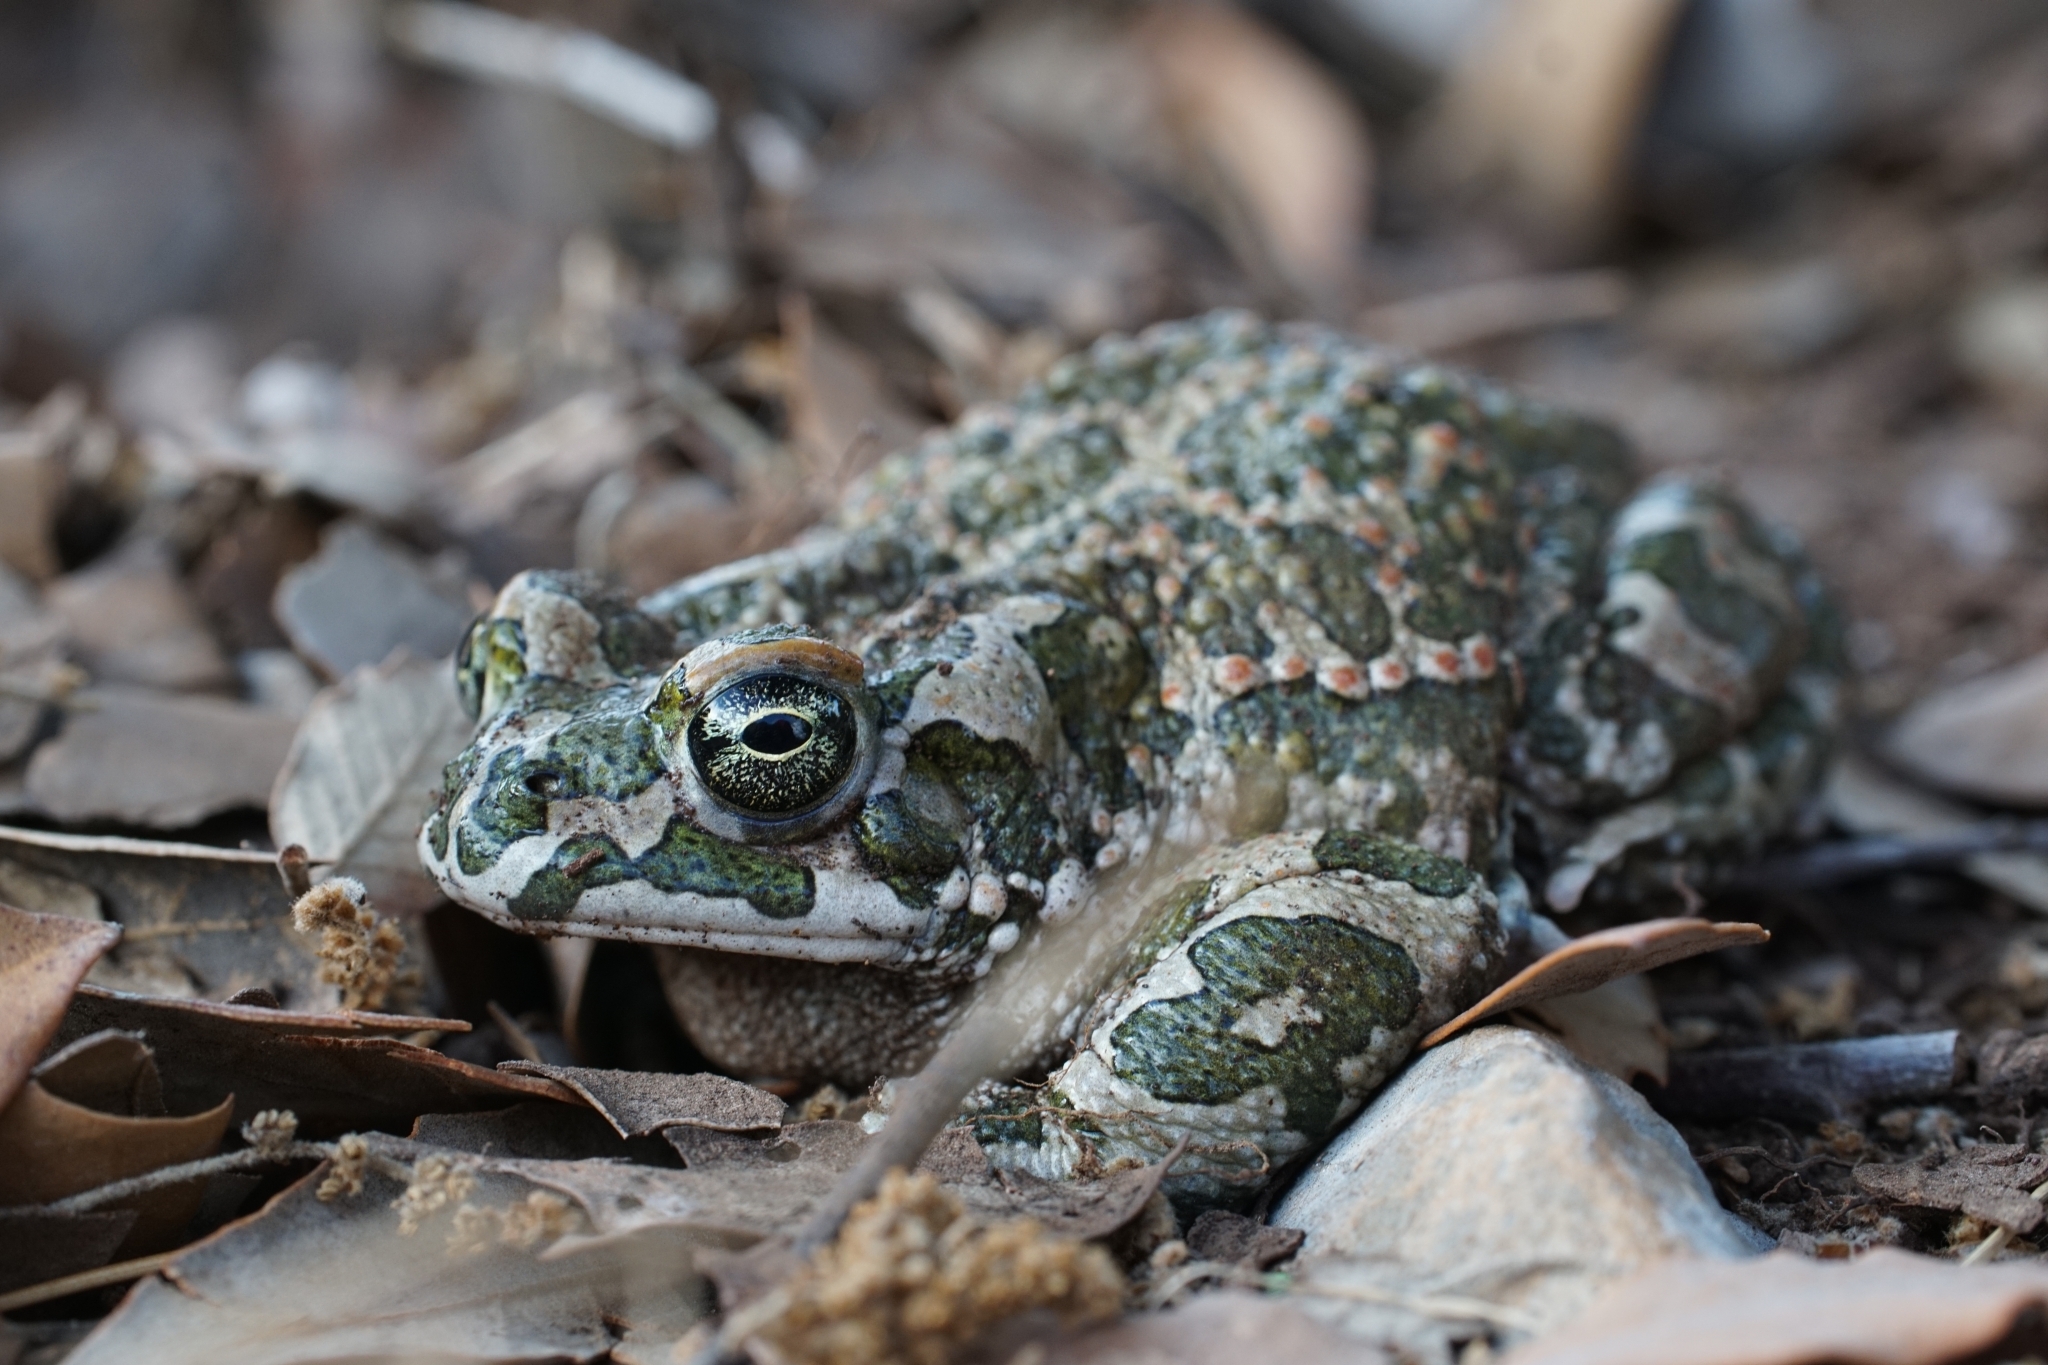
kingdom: Animalia
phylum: Chordata
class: Amphibia
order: Anura
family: Bufonidae
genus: Bufotes
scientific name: Bufotes viridis
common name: European green toad
